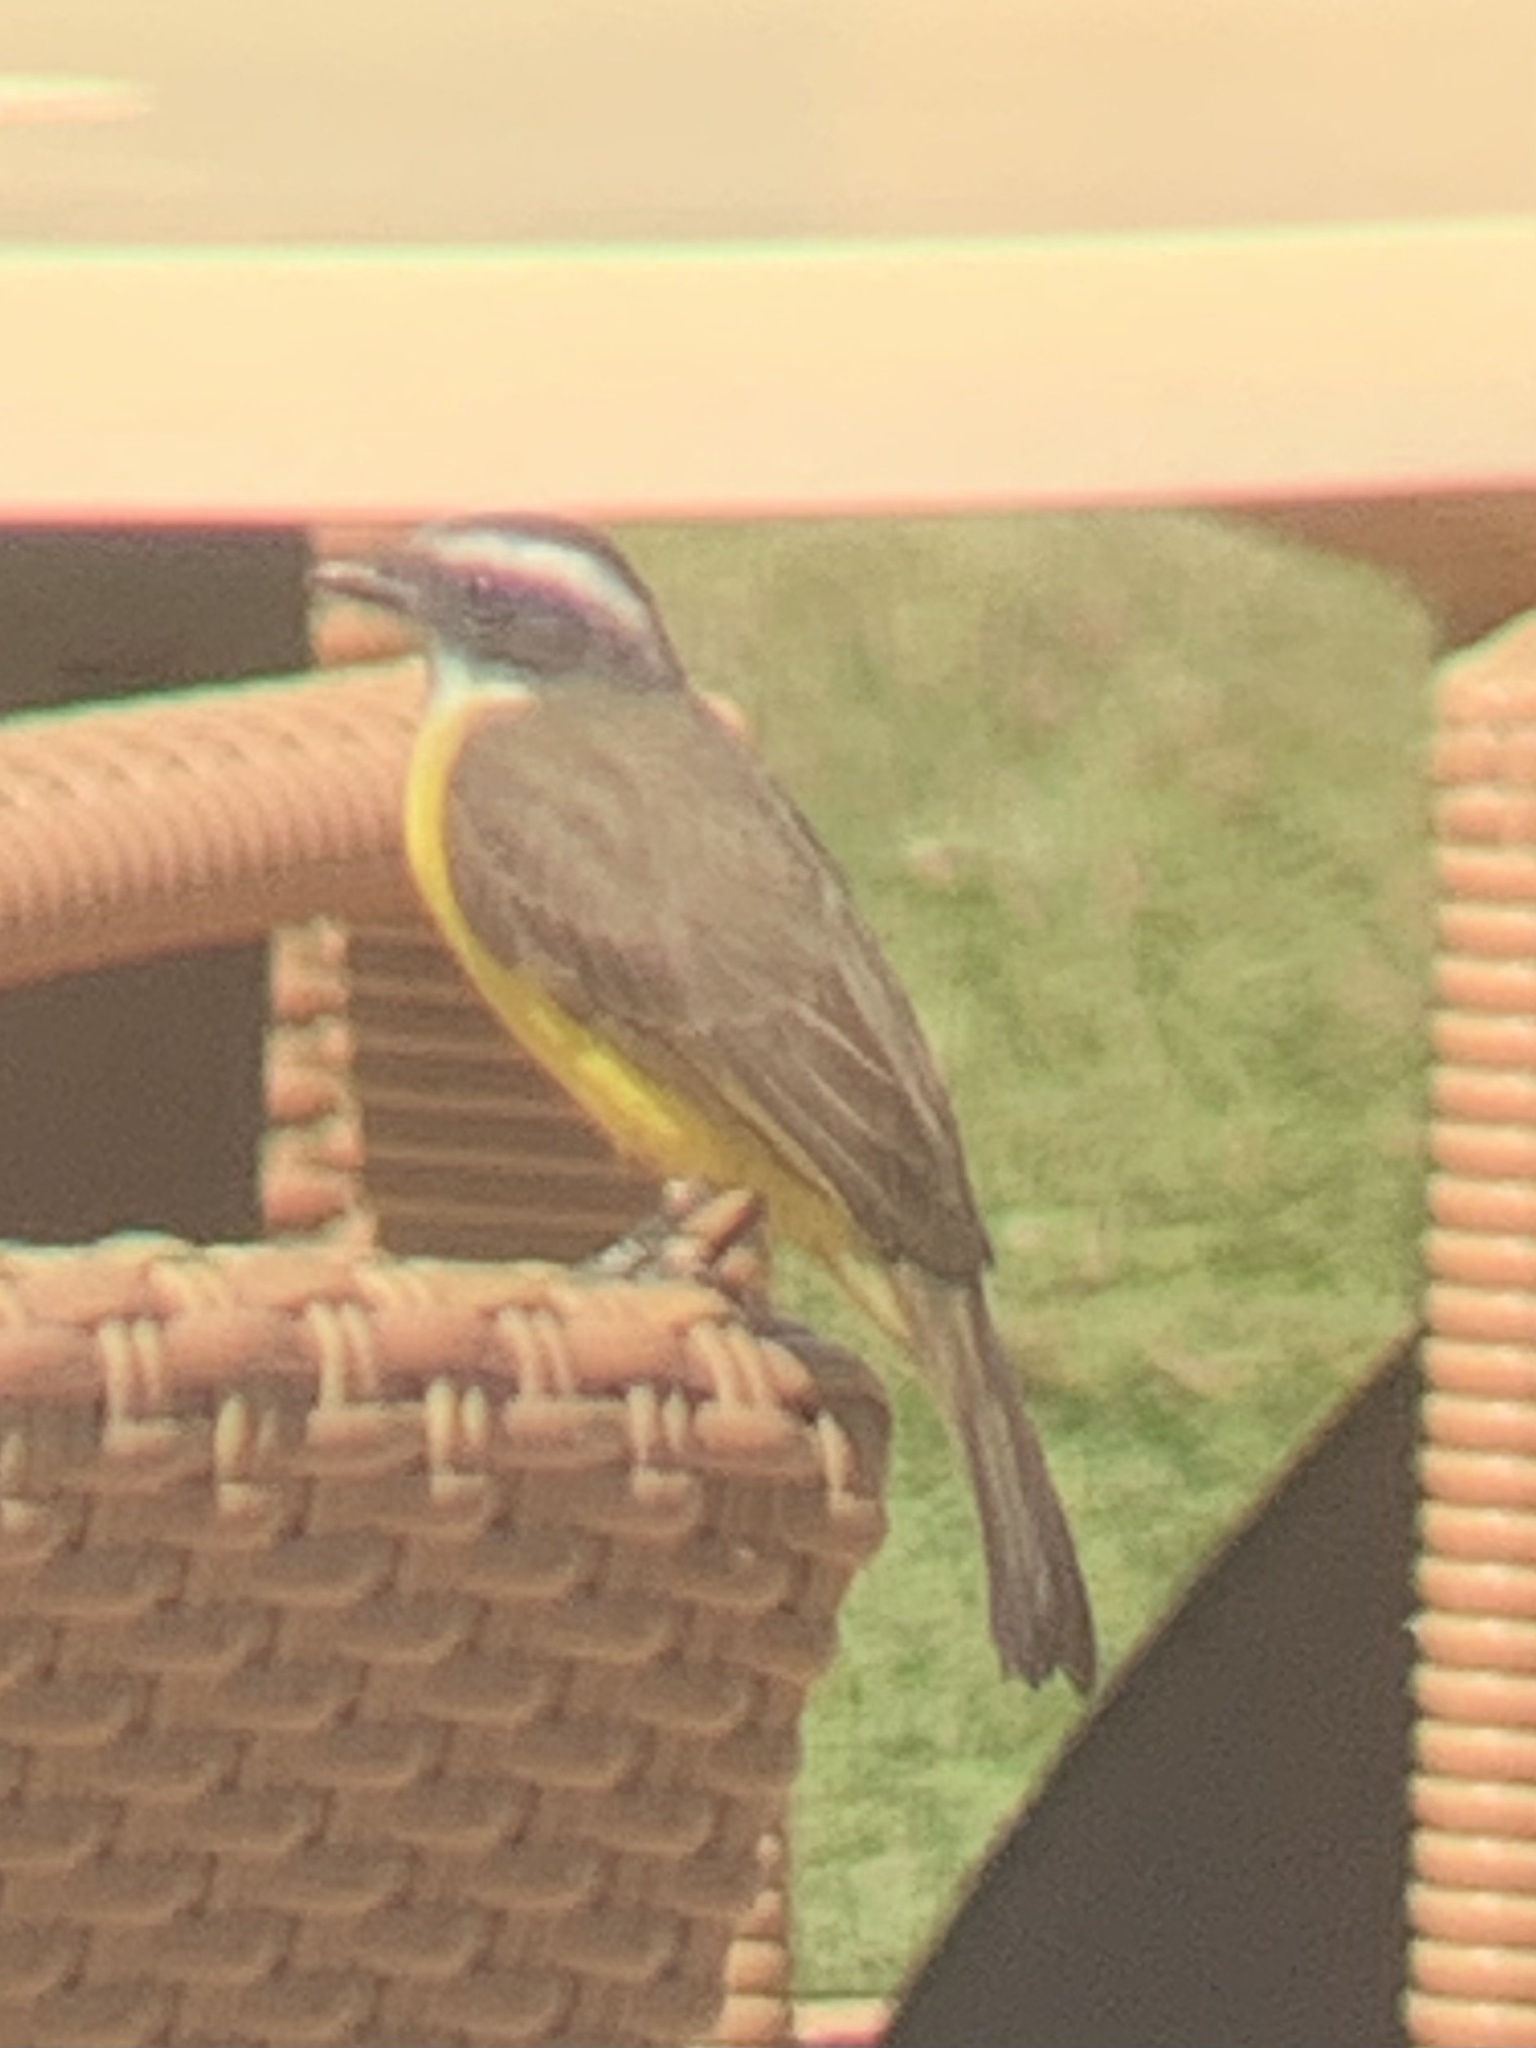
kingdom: Animalia
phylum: Chordata
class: Aves
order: Passeriformes
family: Tyrannidae
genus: Myiozetetes
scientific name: Myiozetetes similis
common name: Social flycatcher
